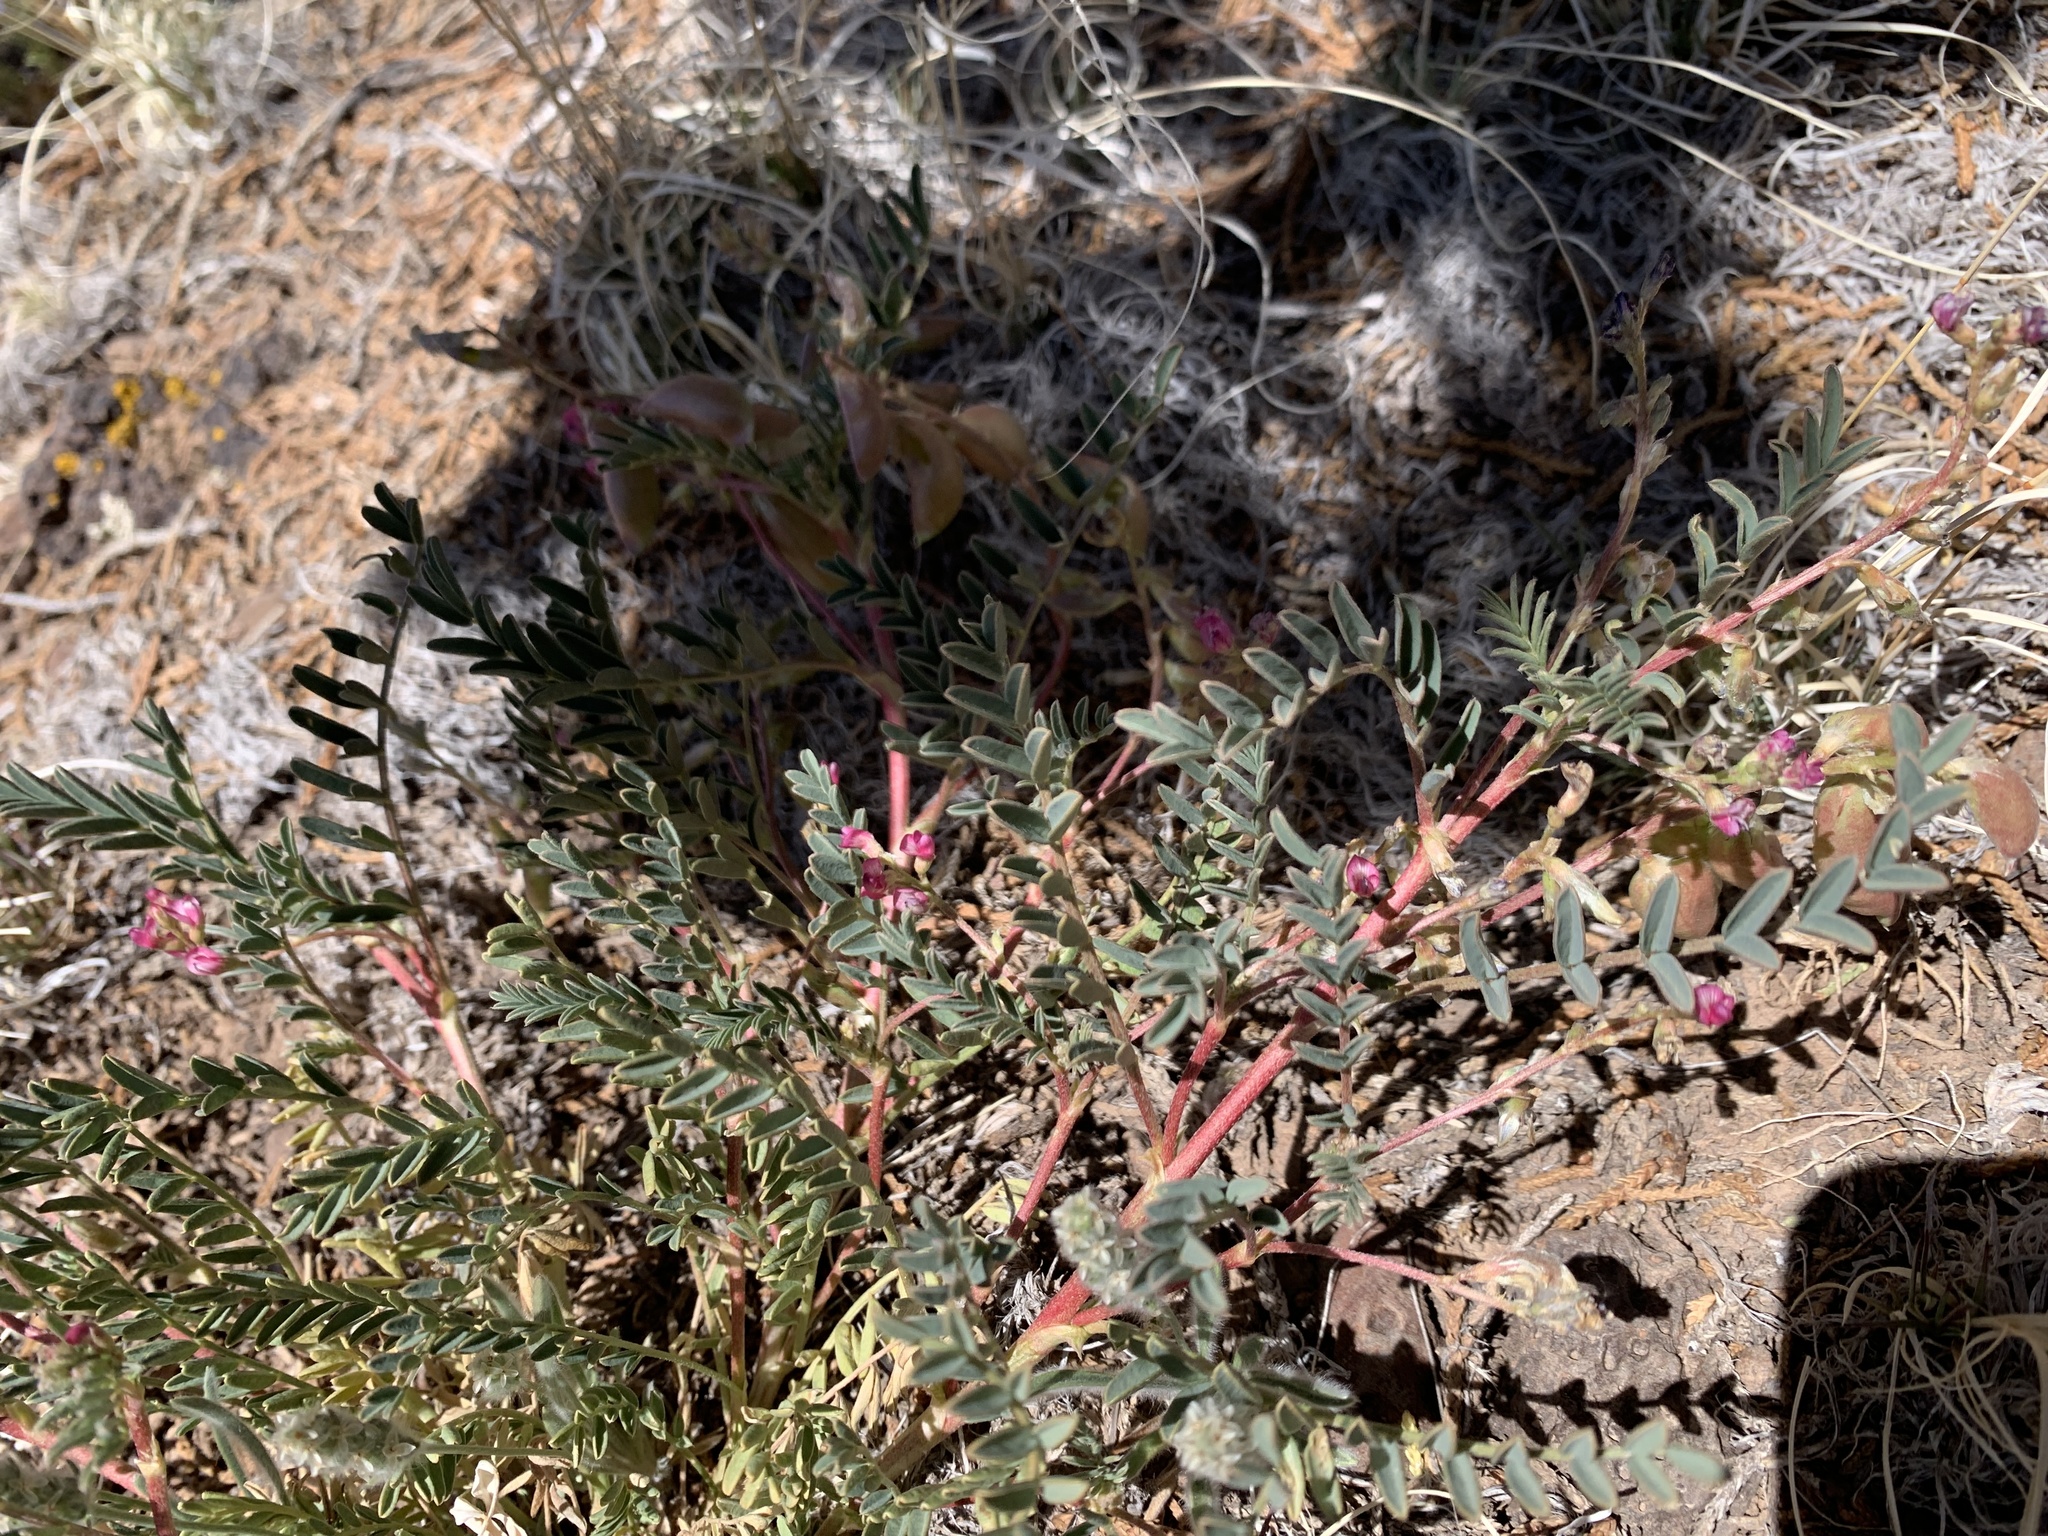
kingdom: Plantae
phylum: Tracheophyta
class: Magnoliopsida
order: Fabales
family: Fabaceae
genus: Astragalus
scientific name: Astragalus wootonii
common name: Wooton's milk-vetch
